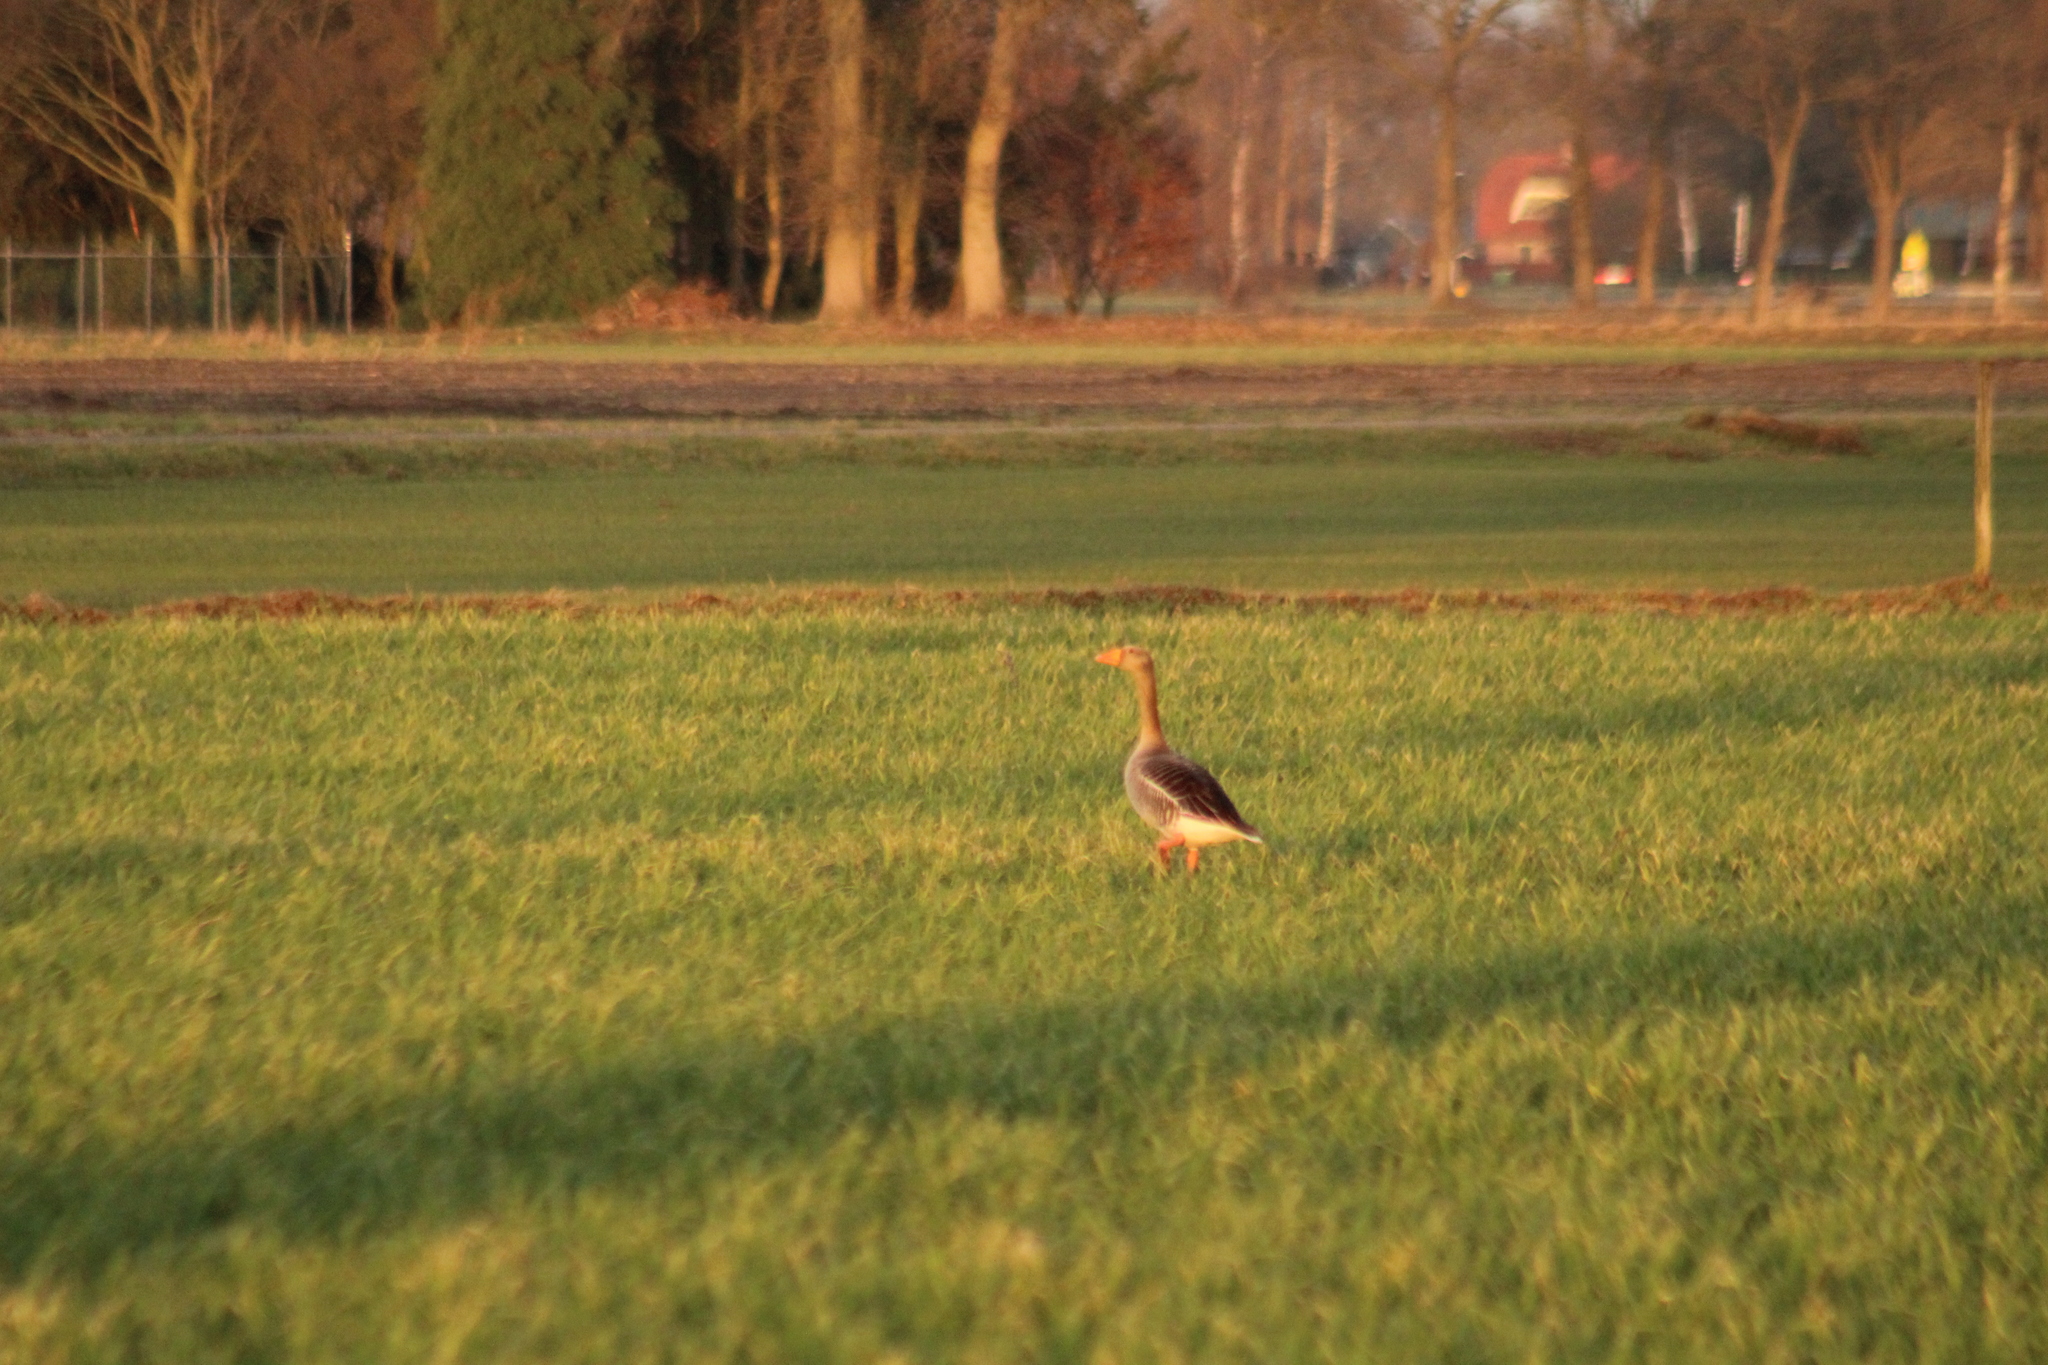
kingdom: Animalia
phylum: Chordata
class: Aves
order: Anseriformes
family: Anatidae
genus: Anser
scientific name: Anser anser
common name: Greylag goose
